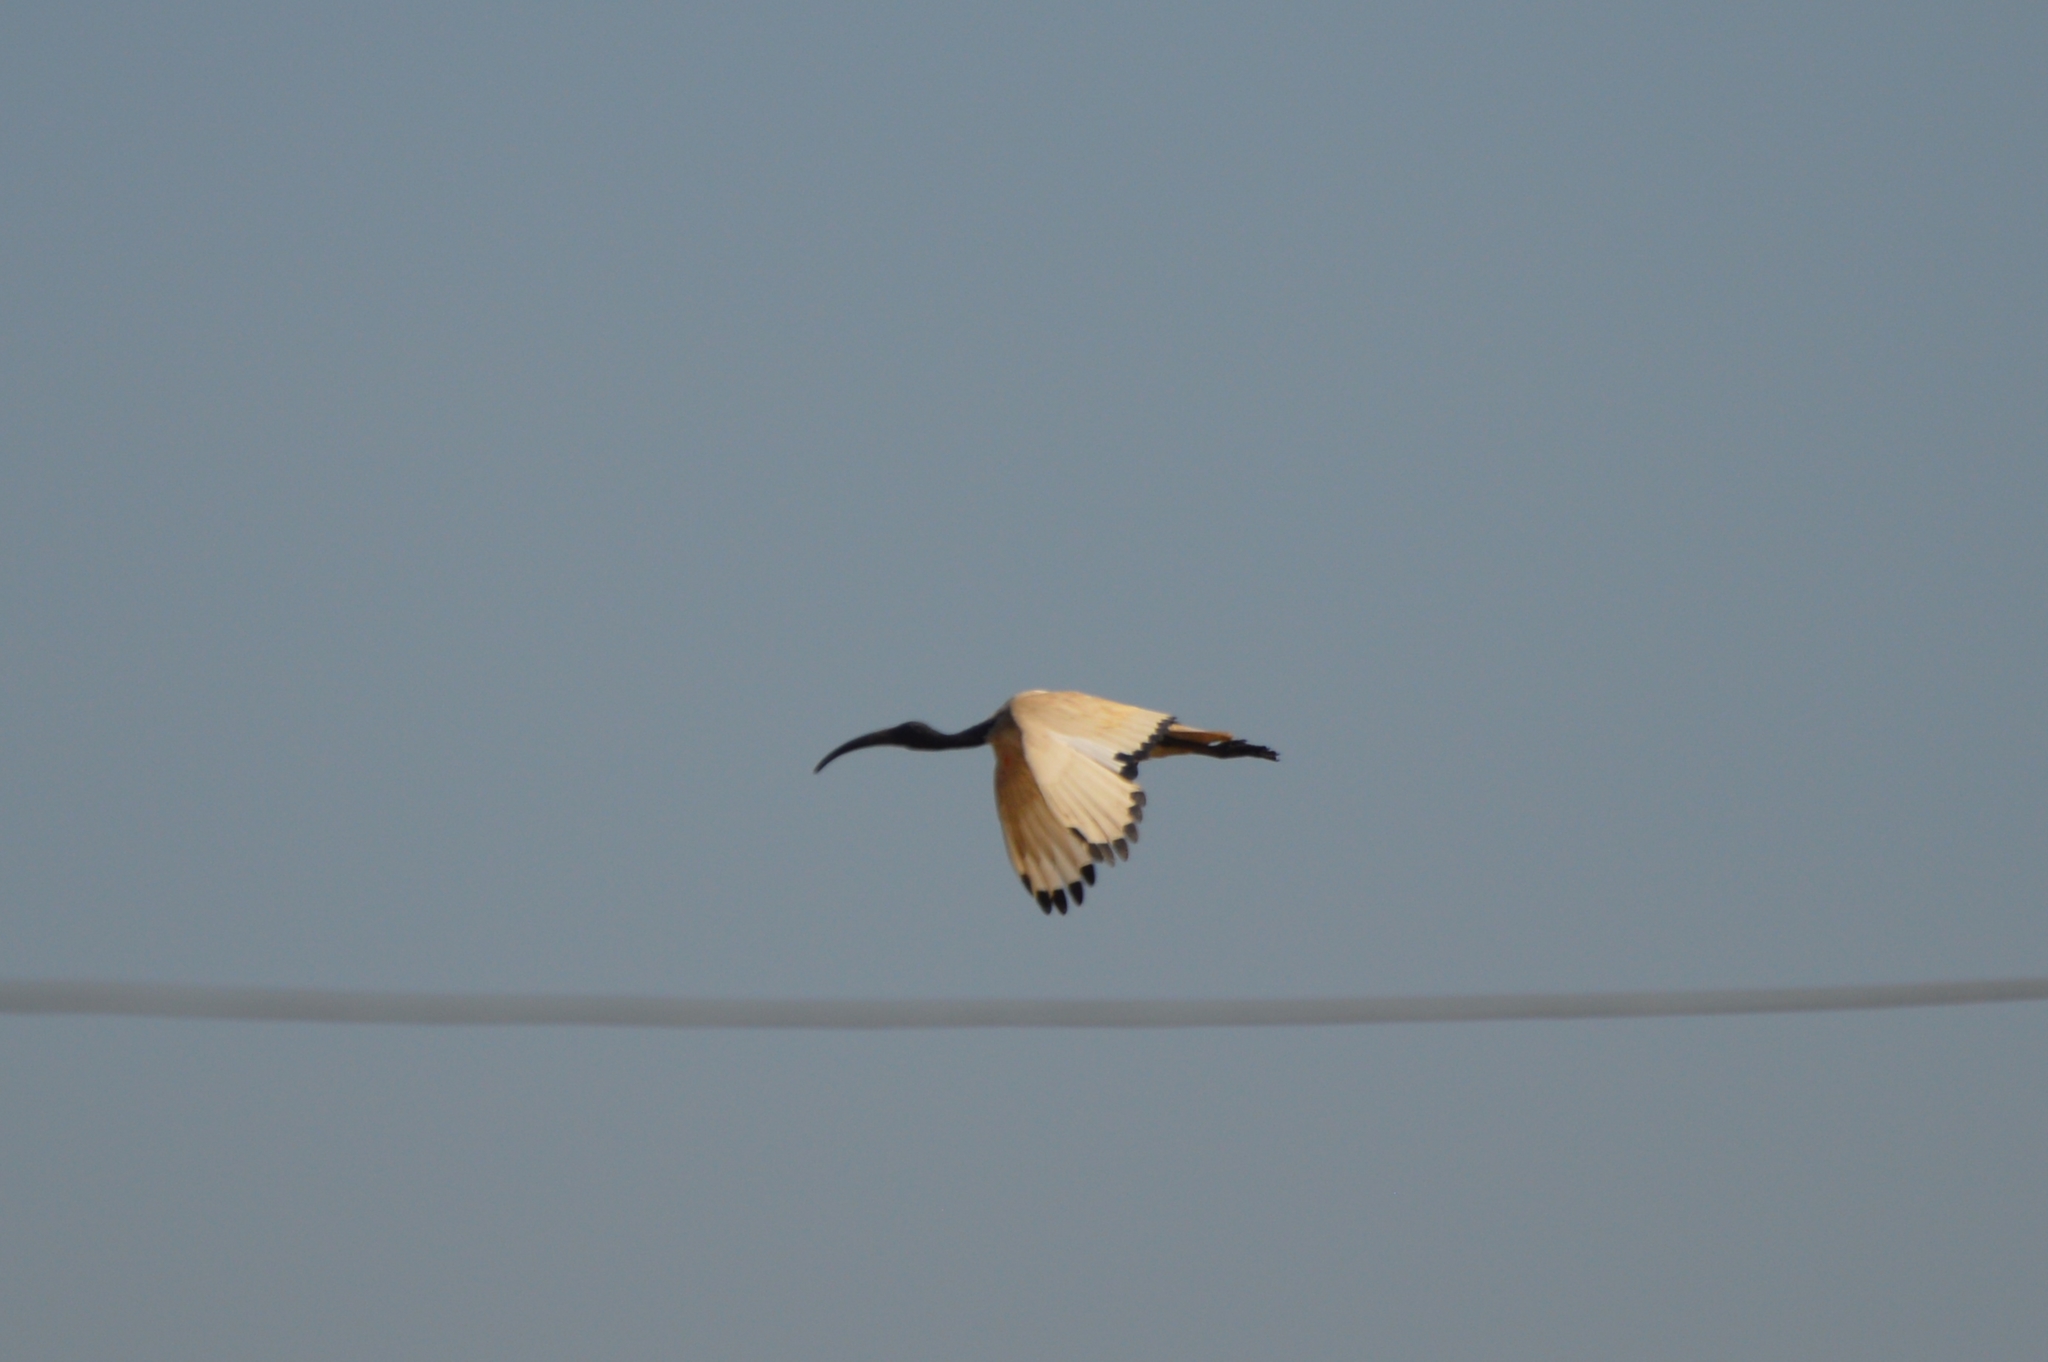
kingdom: Animalia
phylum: Chordata
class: Aves
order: Pelecaniformes
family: Threskiornithidae
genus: Threskiornis
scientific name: Threskiornis aethiopicus
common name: Sacred ibis
